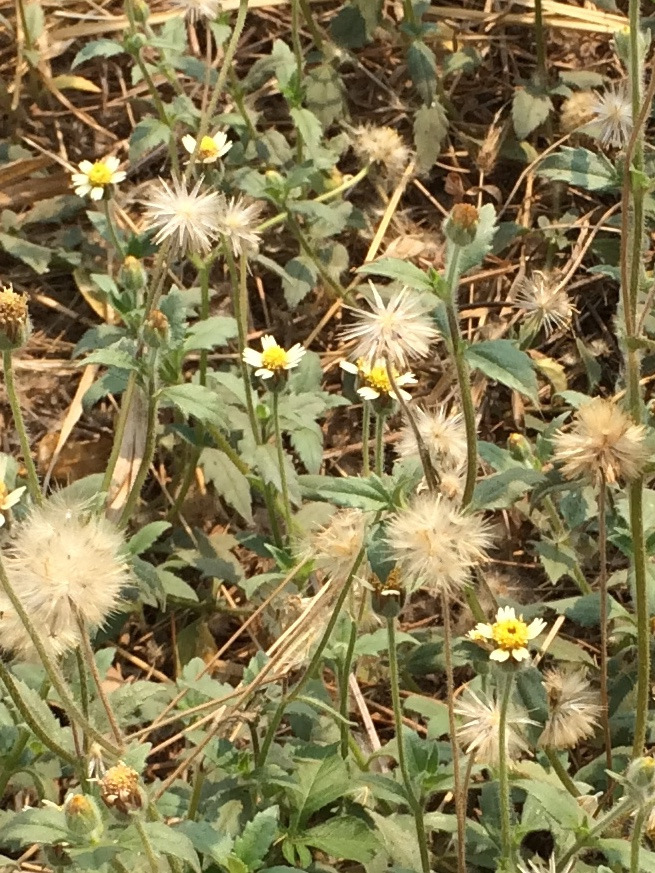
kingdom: Plantae
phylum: Tracheophyta
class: Magnoliopsida
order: Asterales
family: Asteraceae
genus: Tridax
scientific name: Tridax procumbens
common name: Coatbuttons
